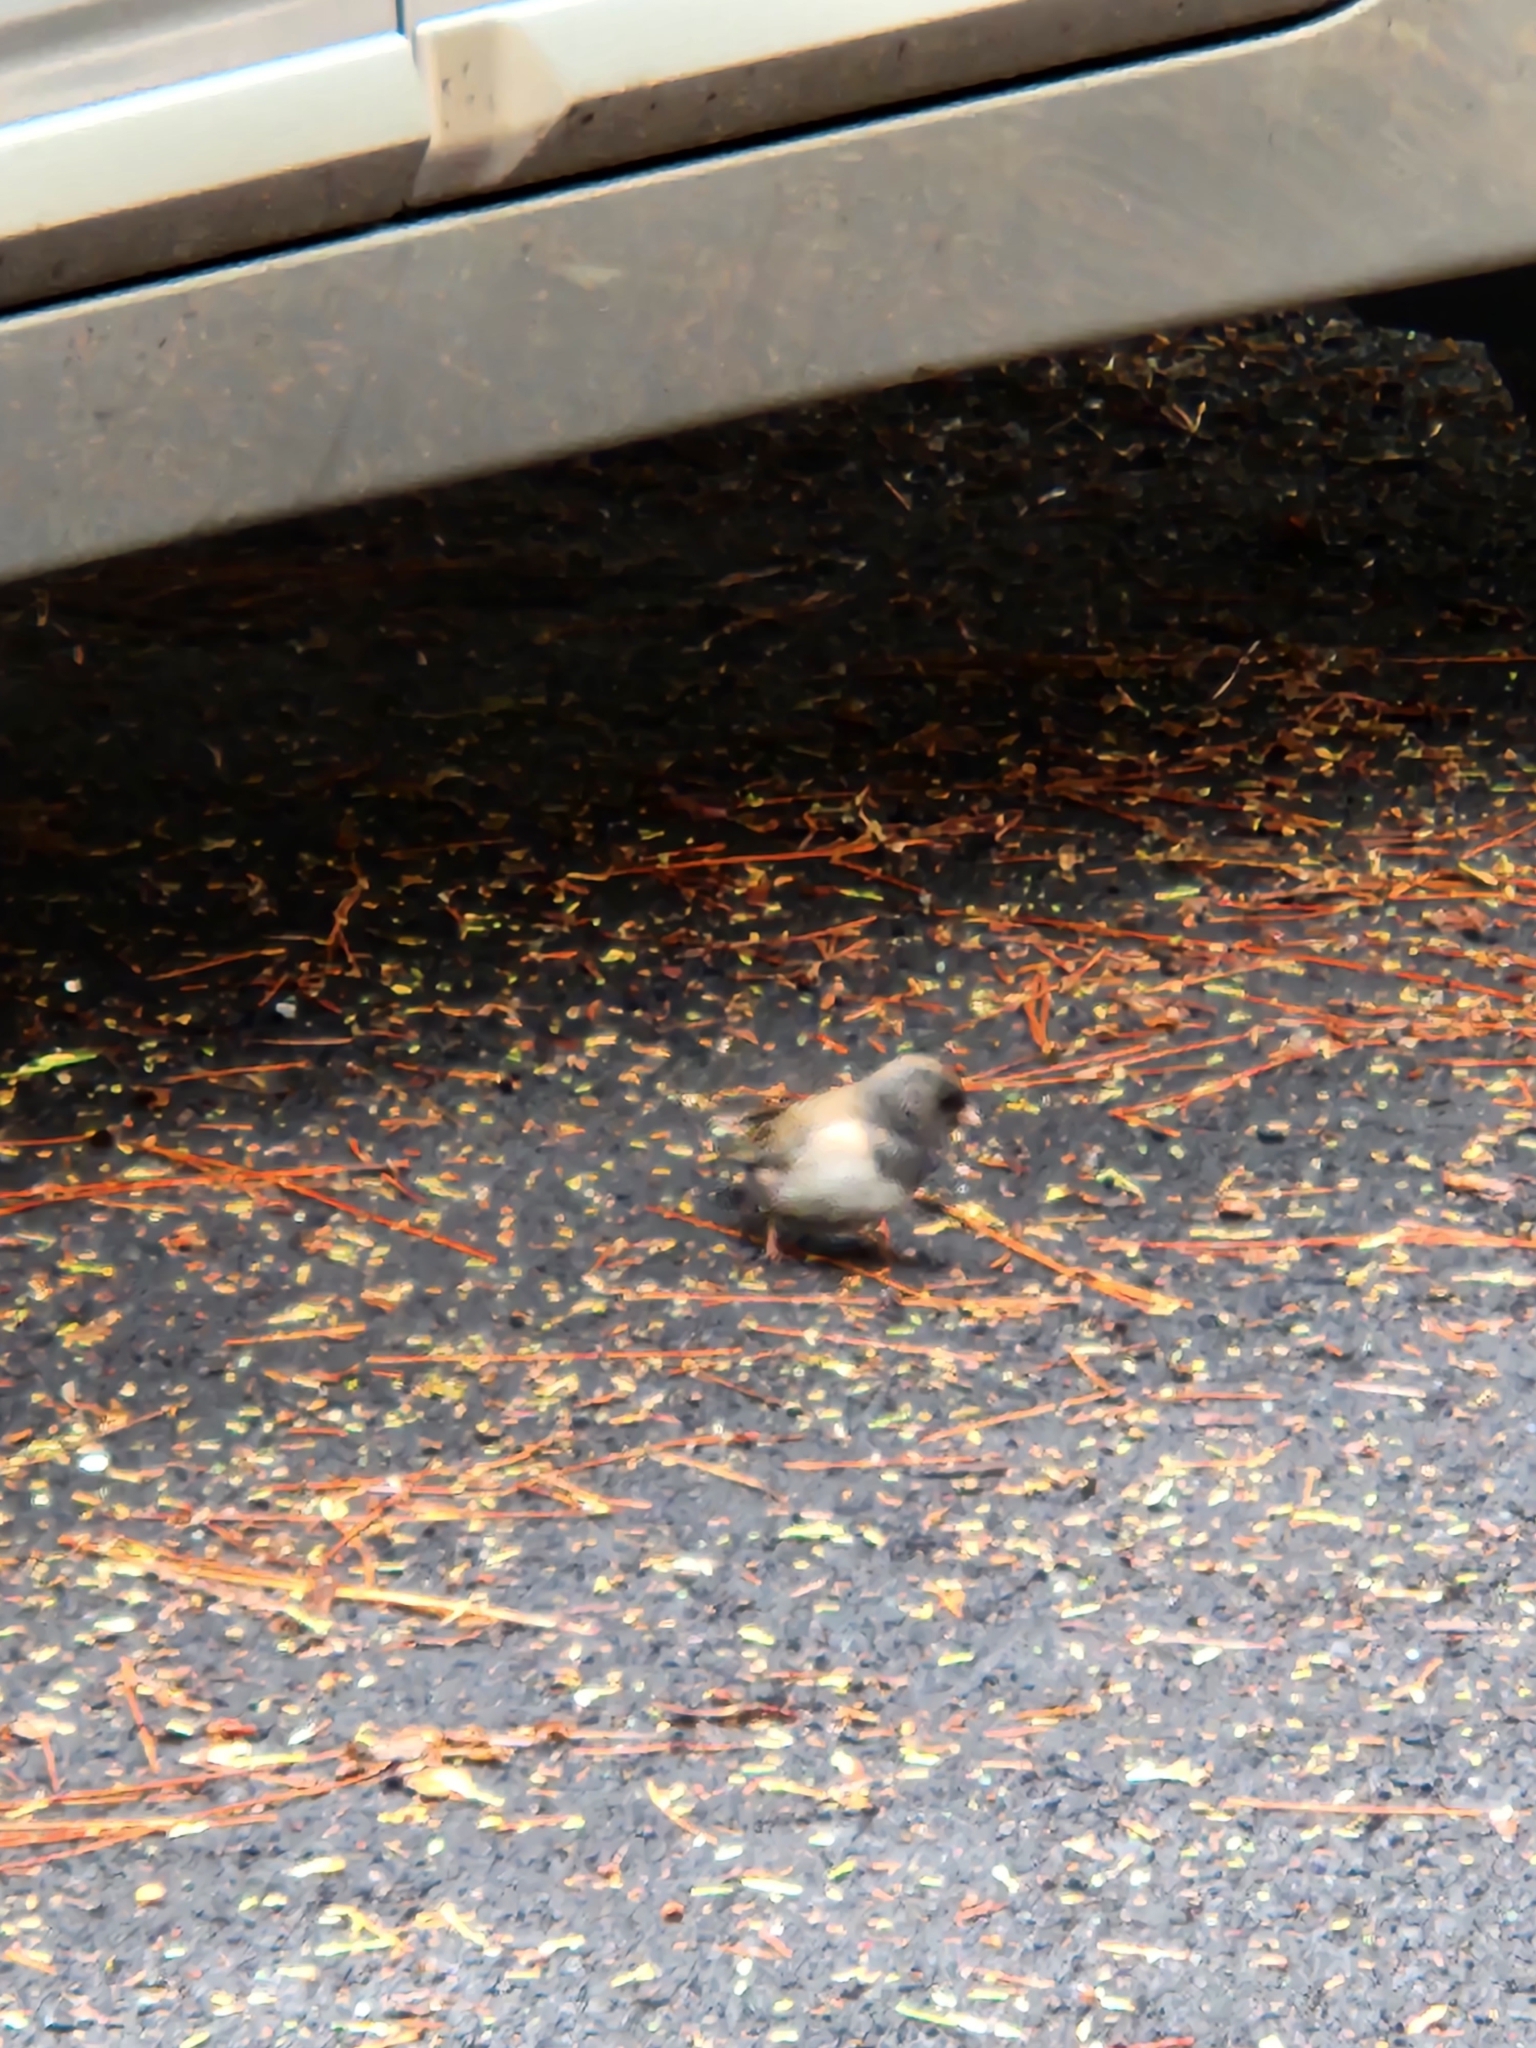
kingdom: Animalia
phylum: Chordata
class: Aves
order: Passeriformes
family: Passerellidae
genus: Junco
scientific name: Junco hyemalis
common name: Dark-eyed junco
